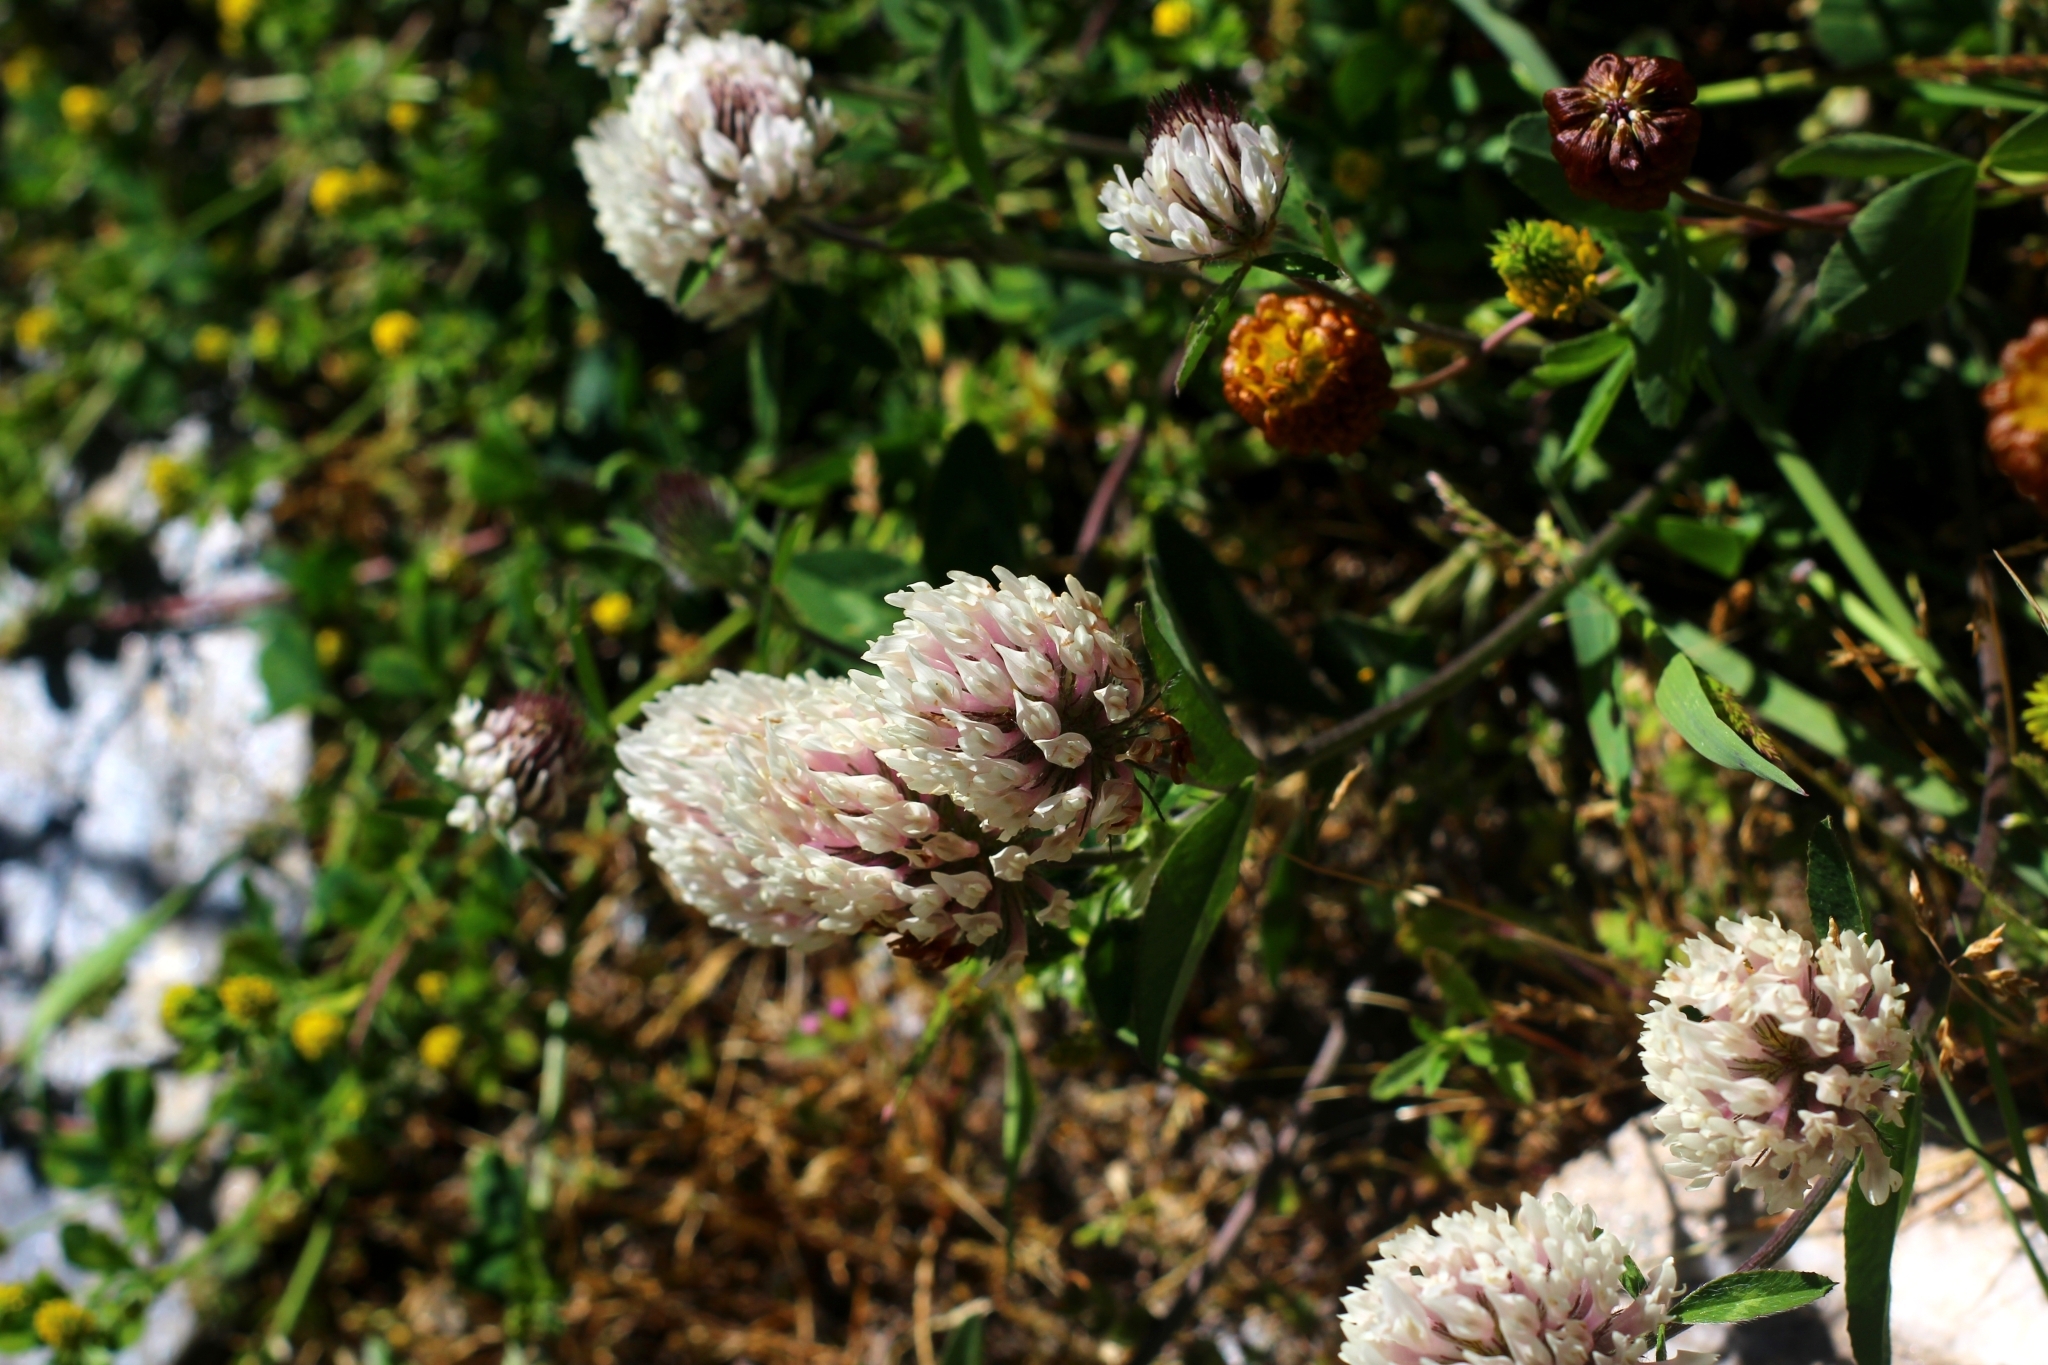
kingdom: Plantae
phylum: Tracheophyta
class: Magnoliopsida
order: Fabales
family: Fabaceae
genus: Trifolium
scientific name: Trifolium pratense
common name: Red clover
